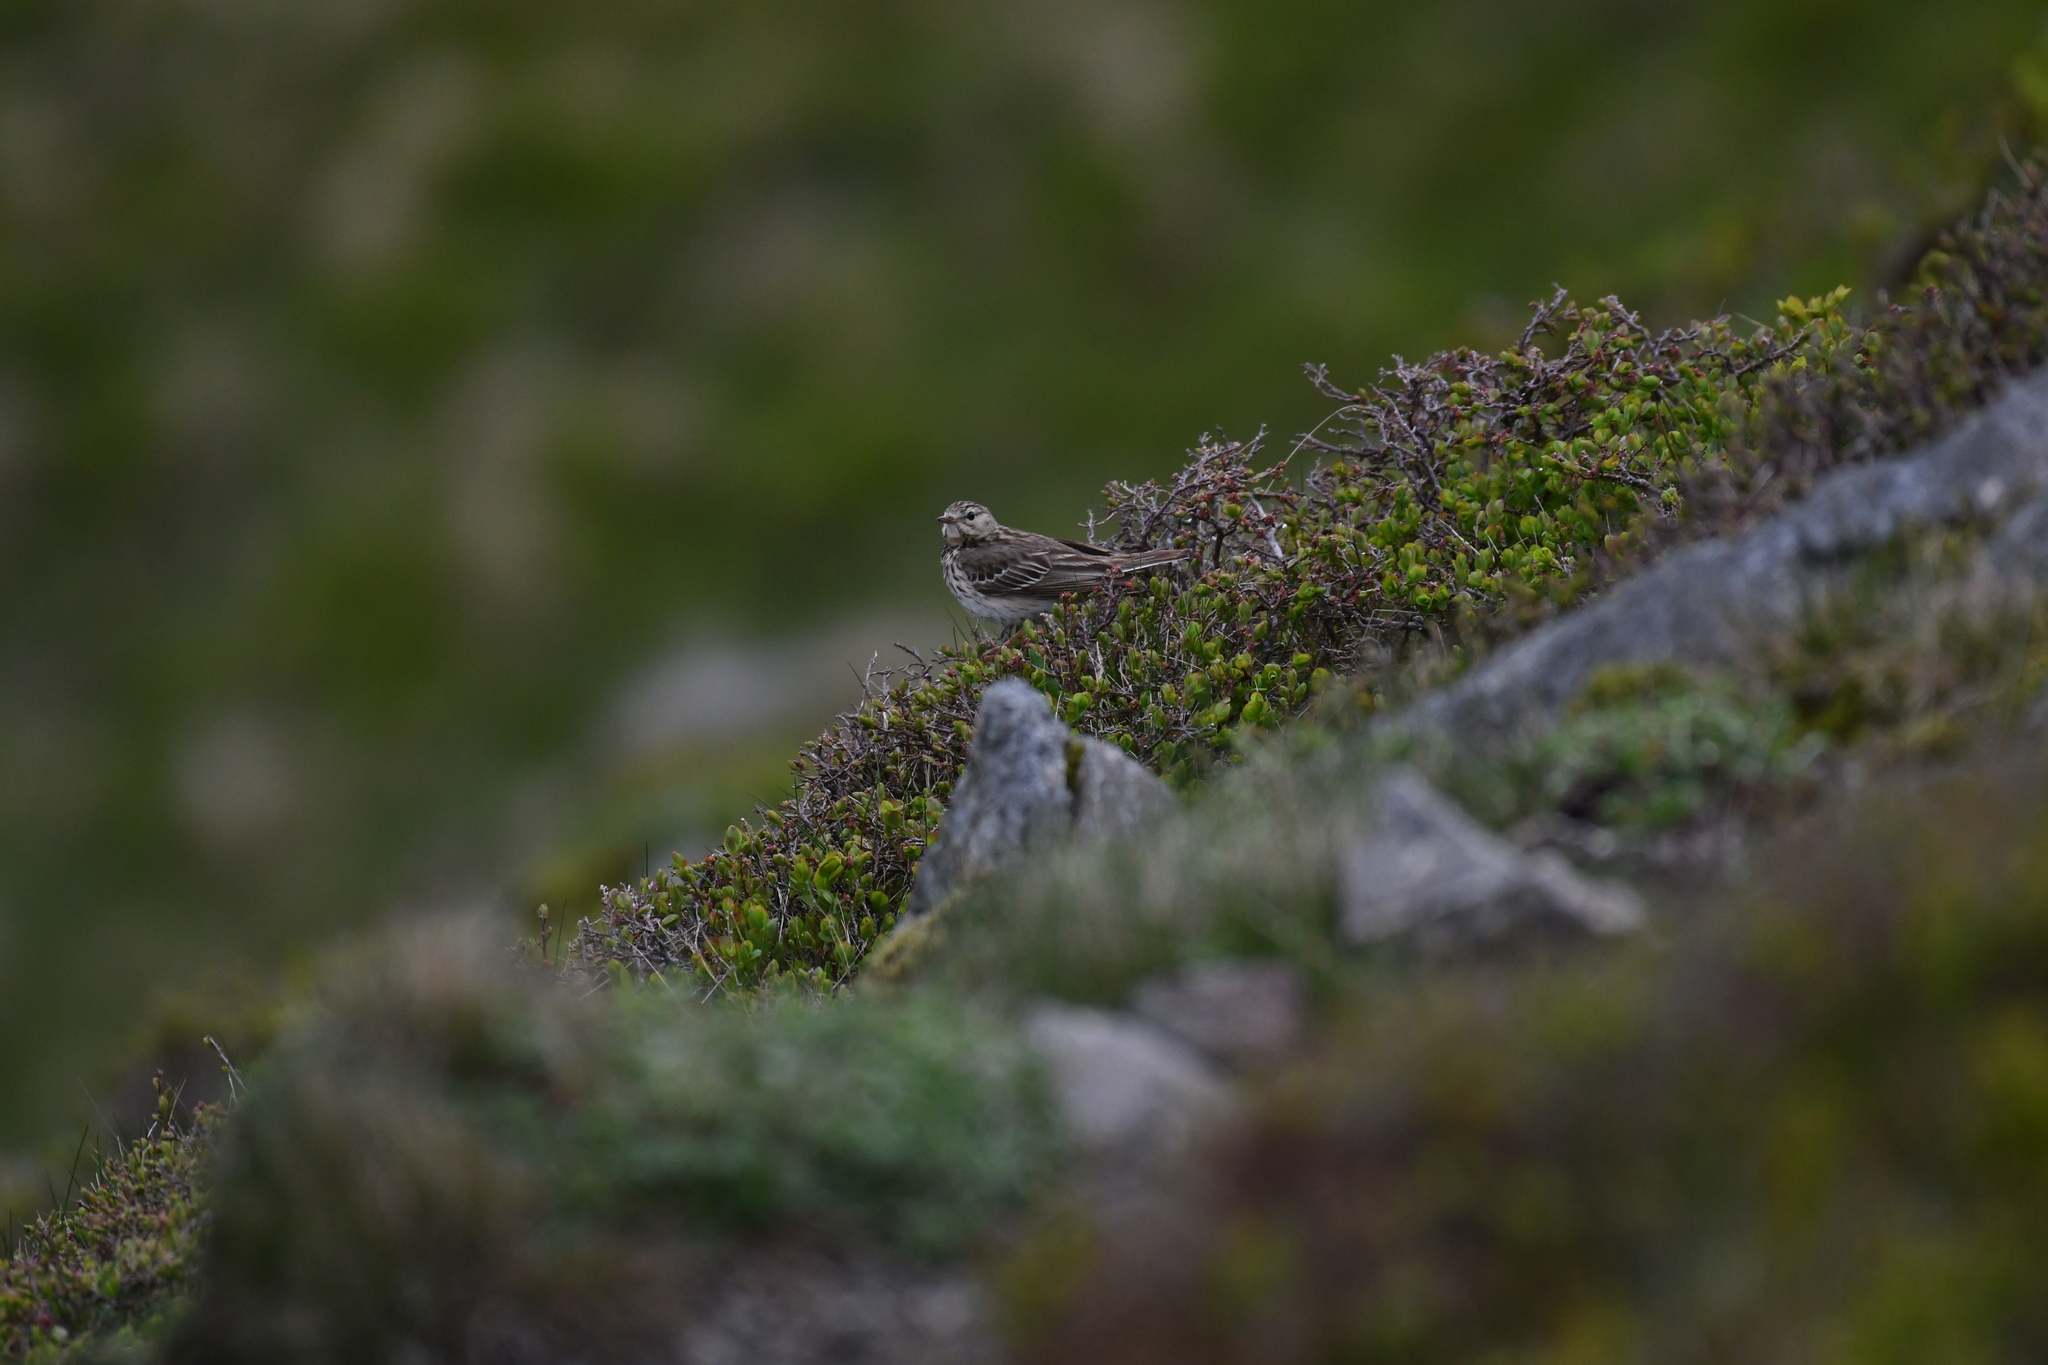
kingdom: Animalia
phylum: Chordata
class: Aves
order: Passeriformes
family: Motacillidae
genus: Anthus
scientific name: Anthus trivialis
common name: Tree pipit
